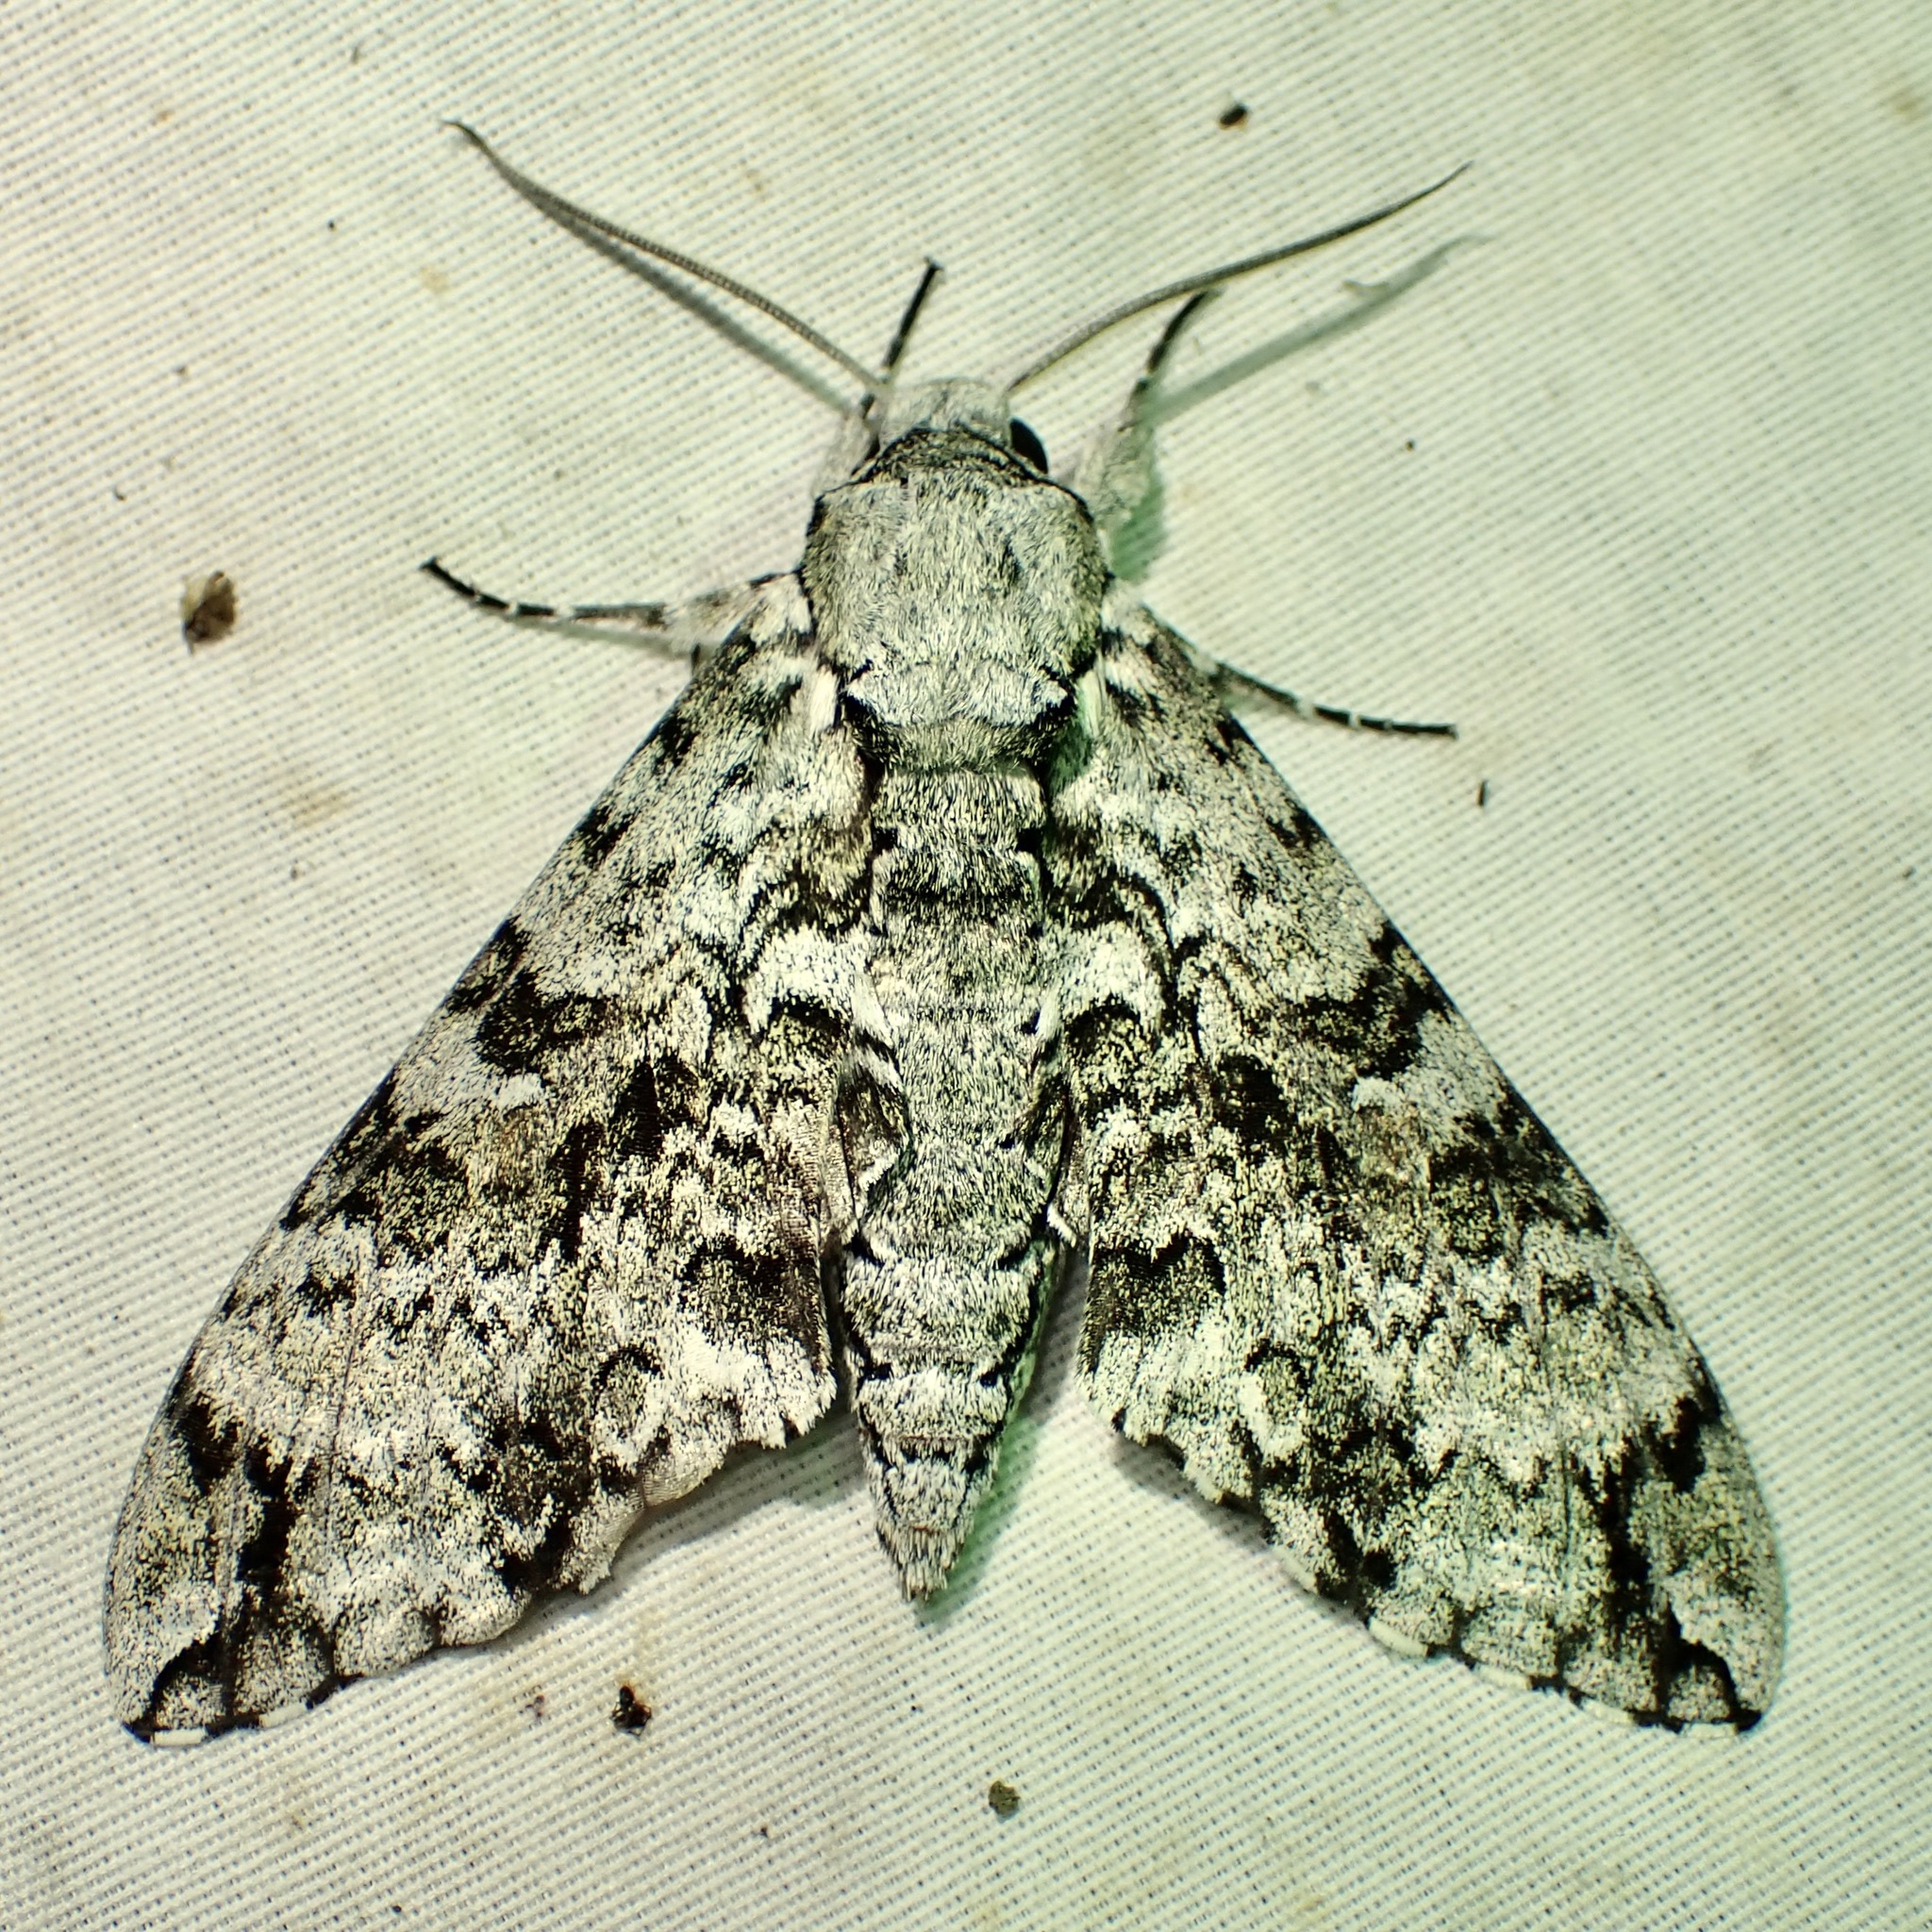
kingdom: Animalia
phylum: Arthropoda
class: Insecta
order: Lepidoptera
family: Sphingidae
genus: Manduca
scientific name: Manduca florestan
